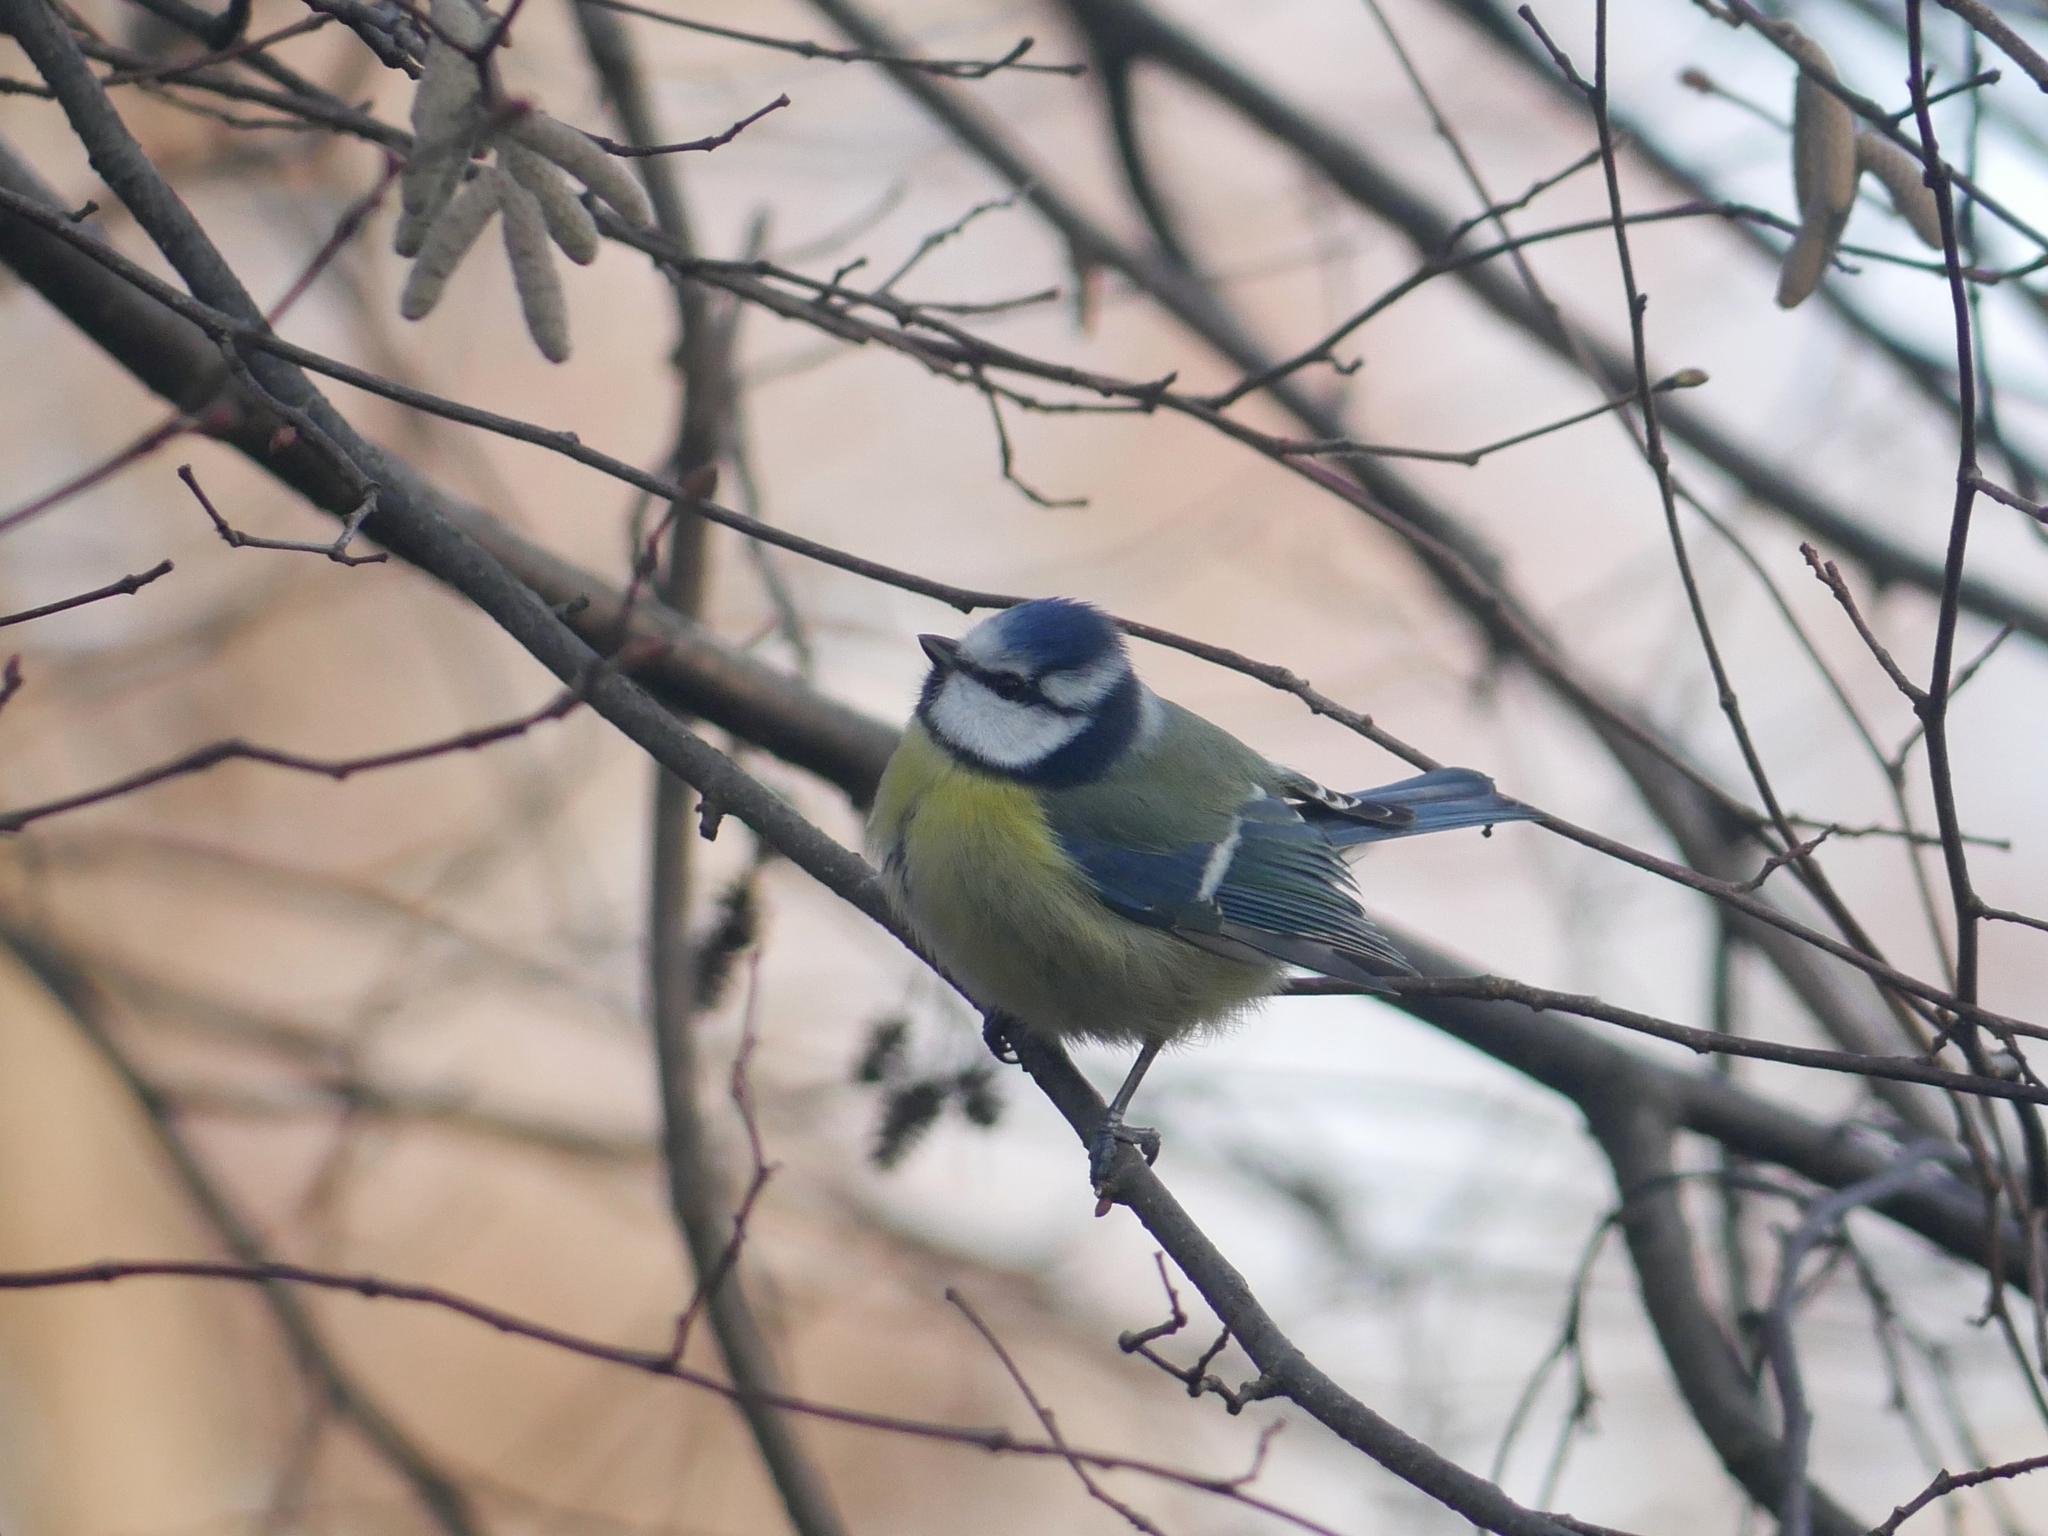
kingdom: Animalia
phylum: Chordata
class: Aves
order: Passeriformes
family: Paridae
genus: Cyanistes
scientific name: Cyanistes caeruleus
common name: Eurasian blue tit
